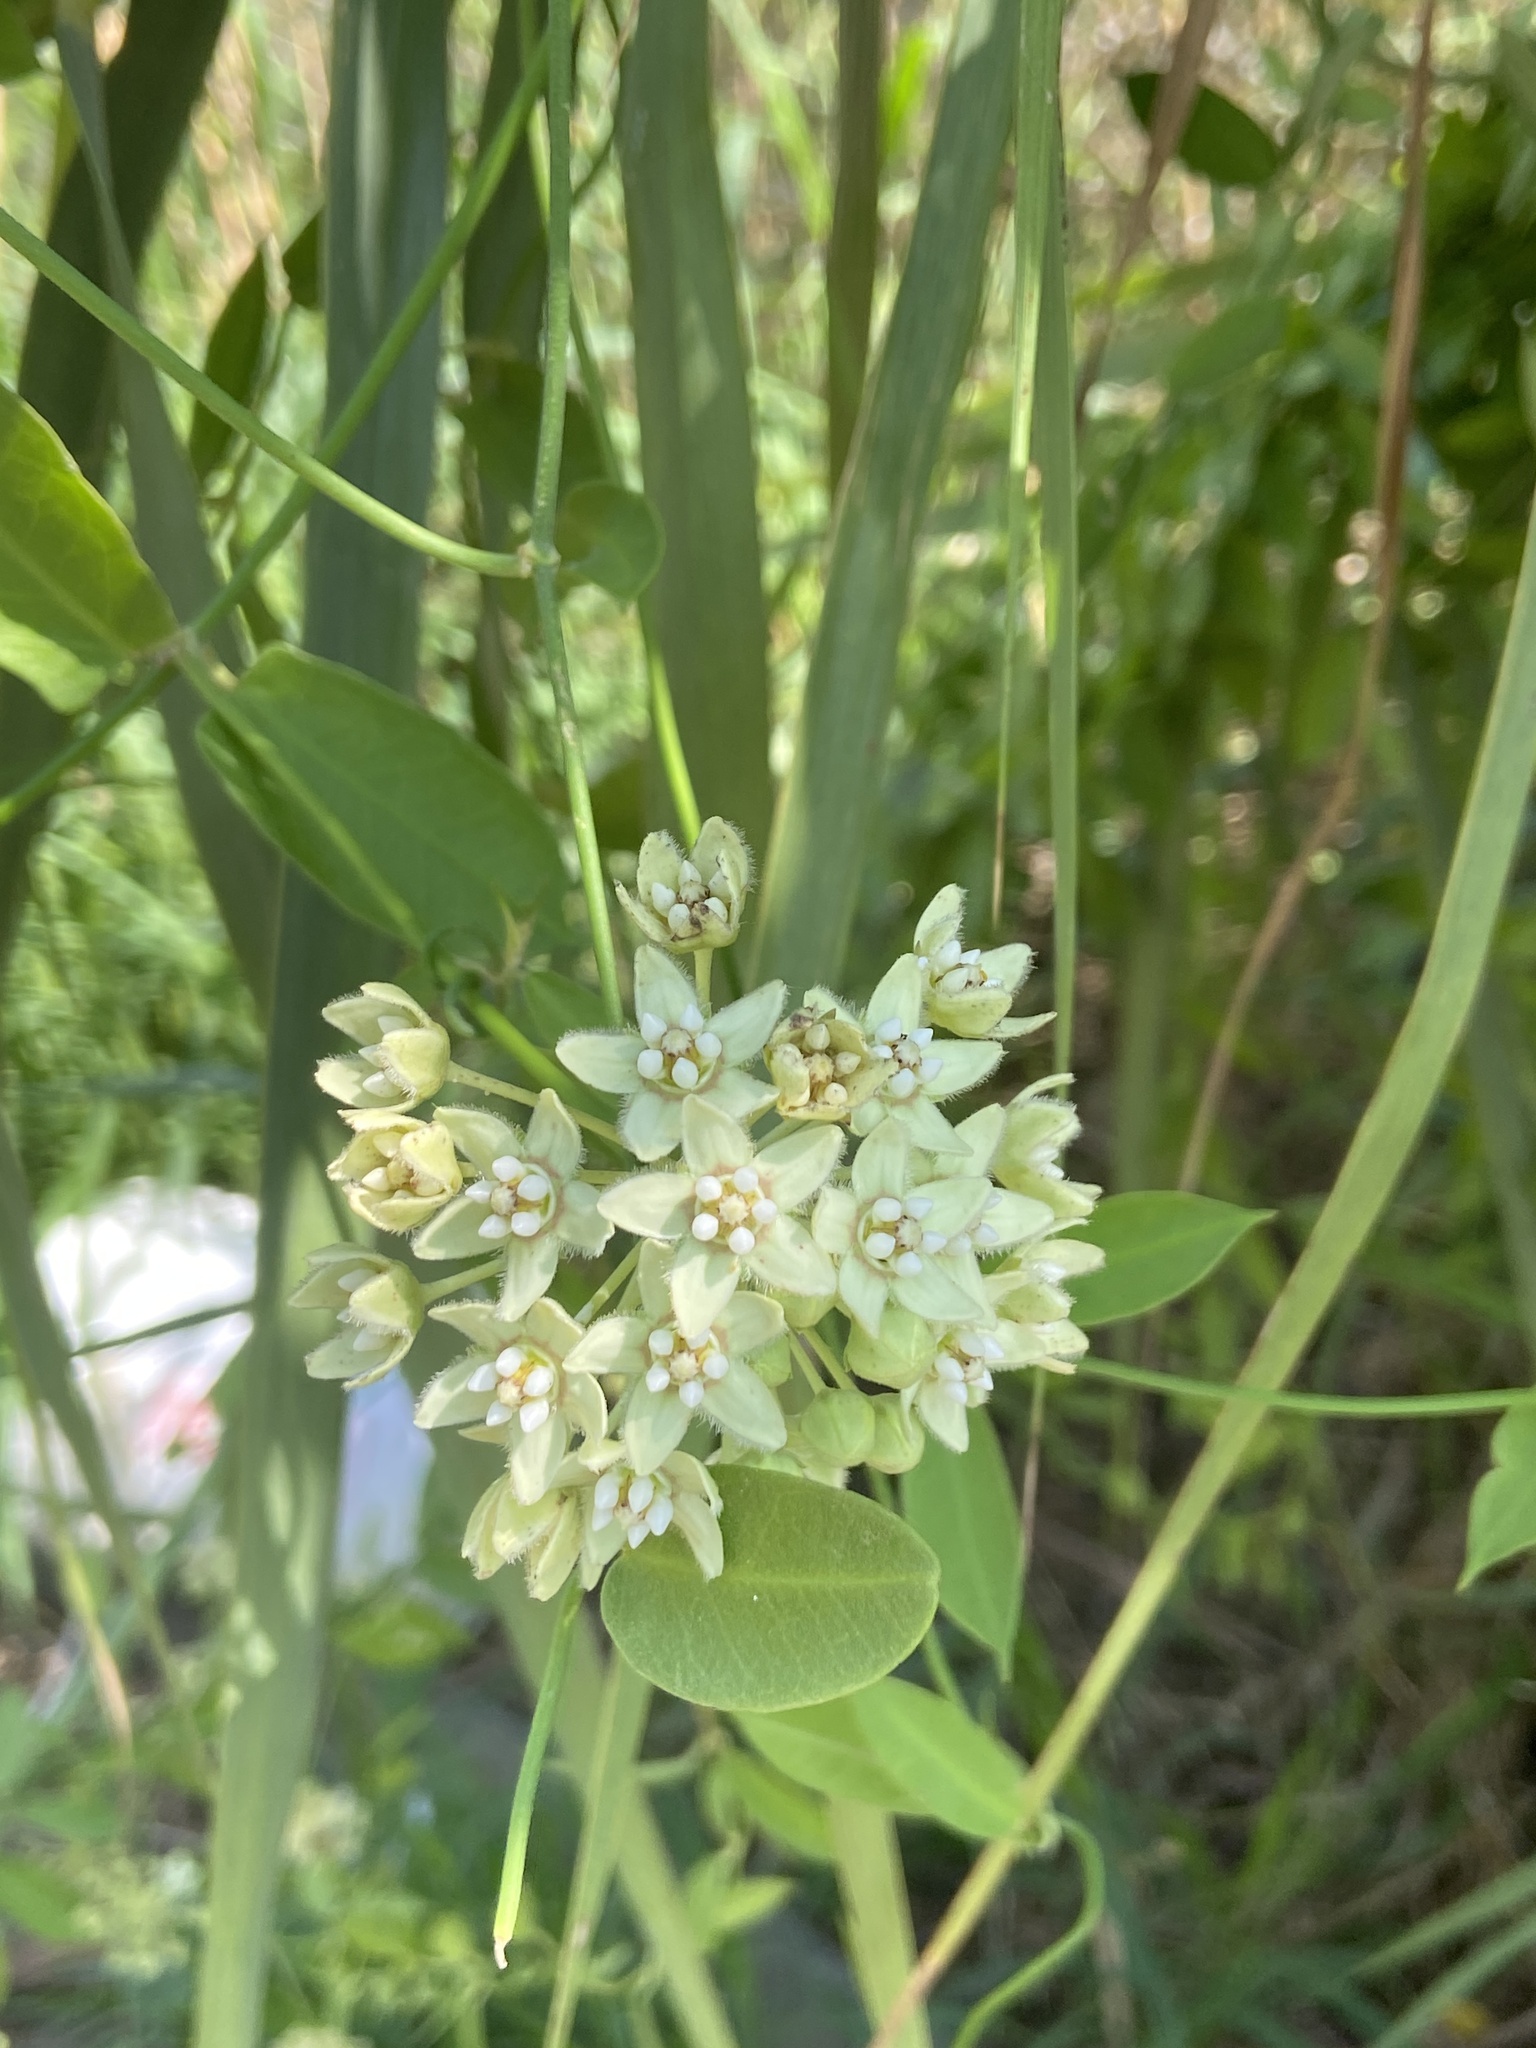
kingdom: Plantae
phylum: Tracheophyta
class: Magnoliopsida
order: Gentianales
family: Apocynaceae
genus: Funastrum
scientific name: Funastrum clausum
